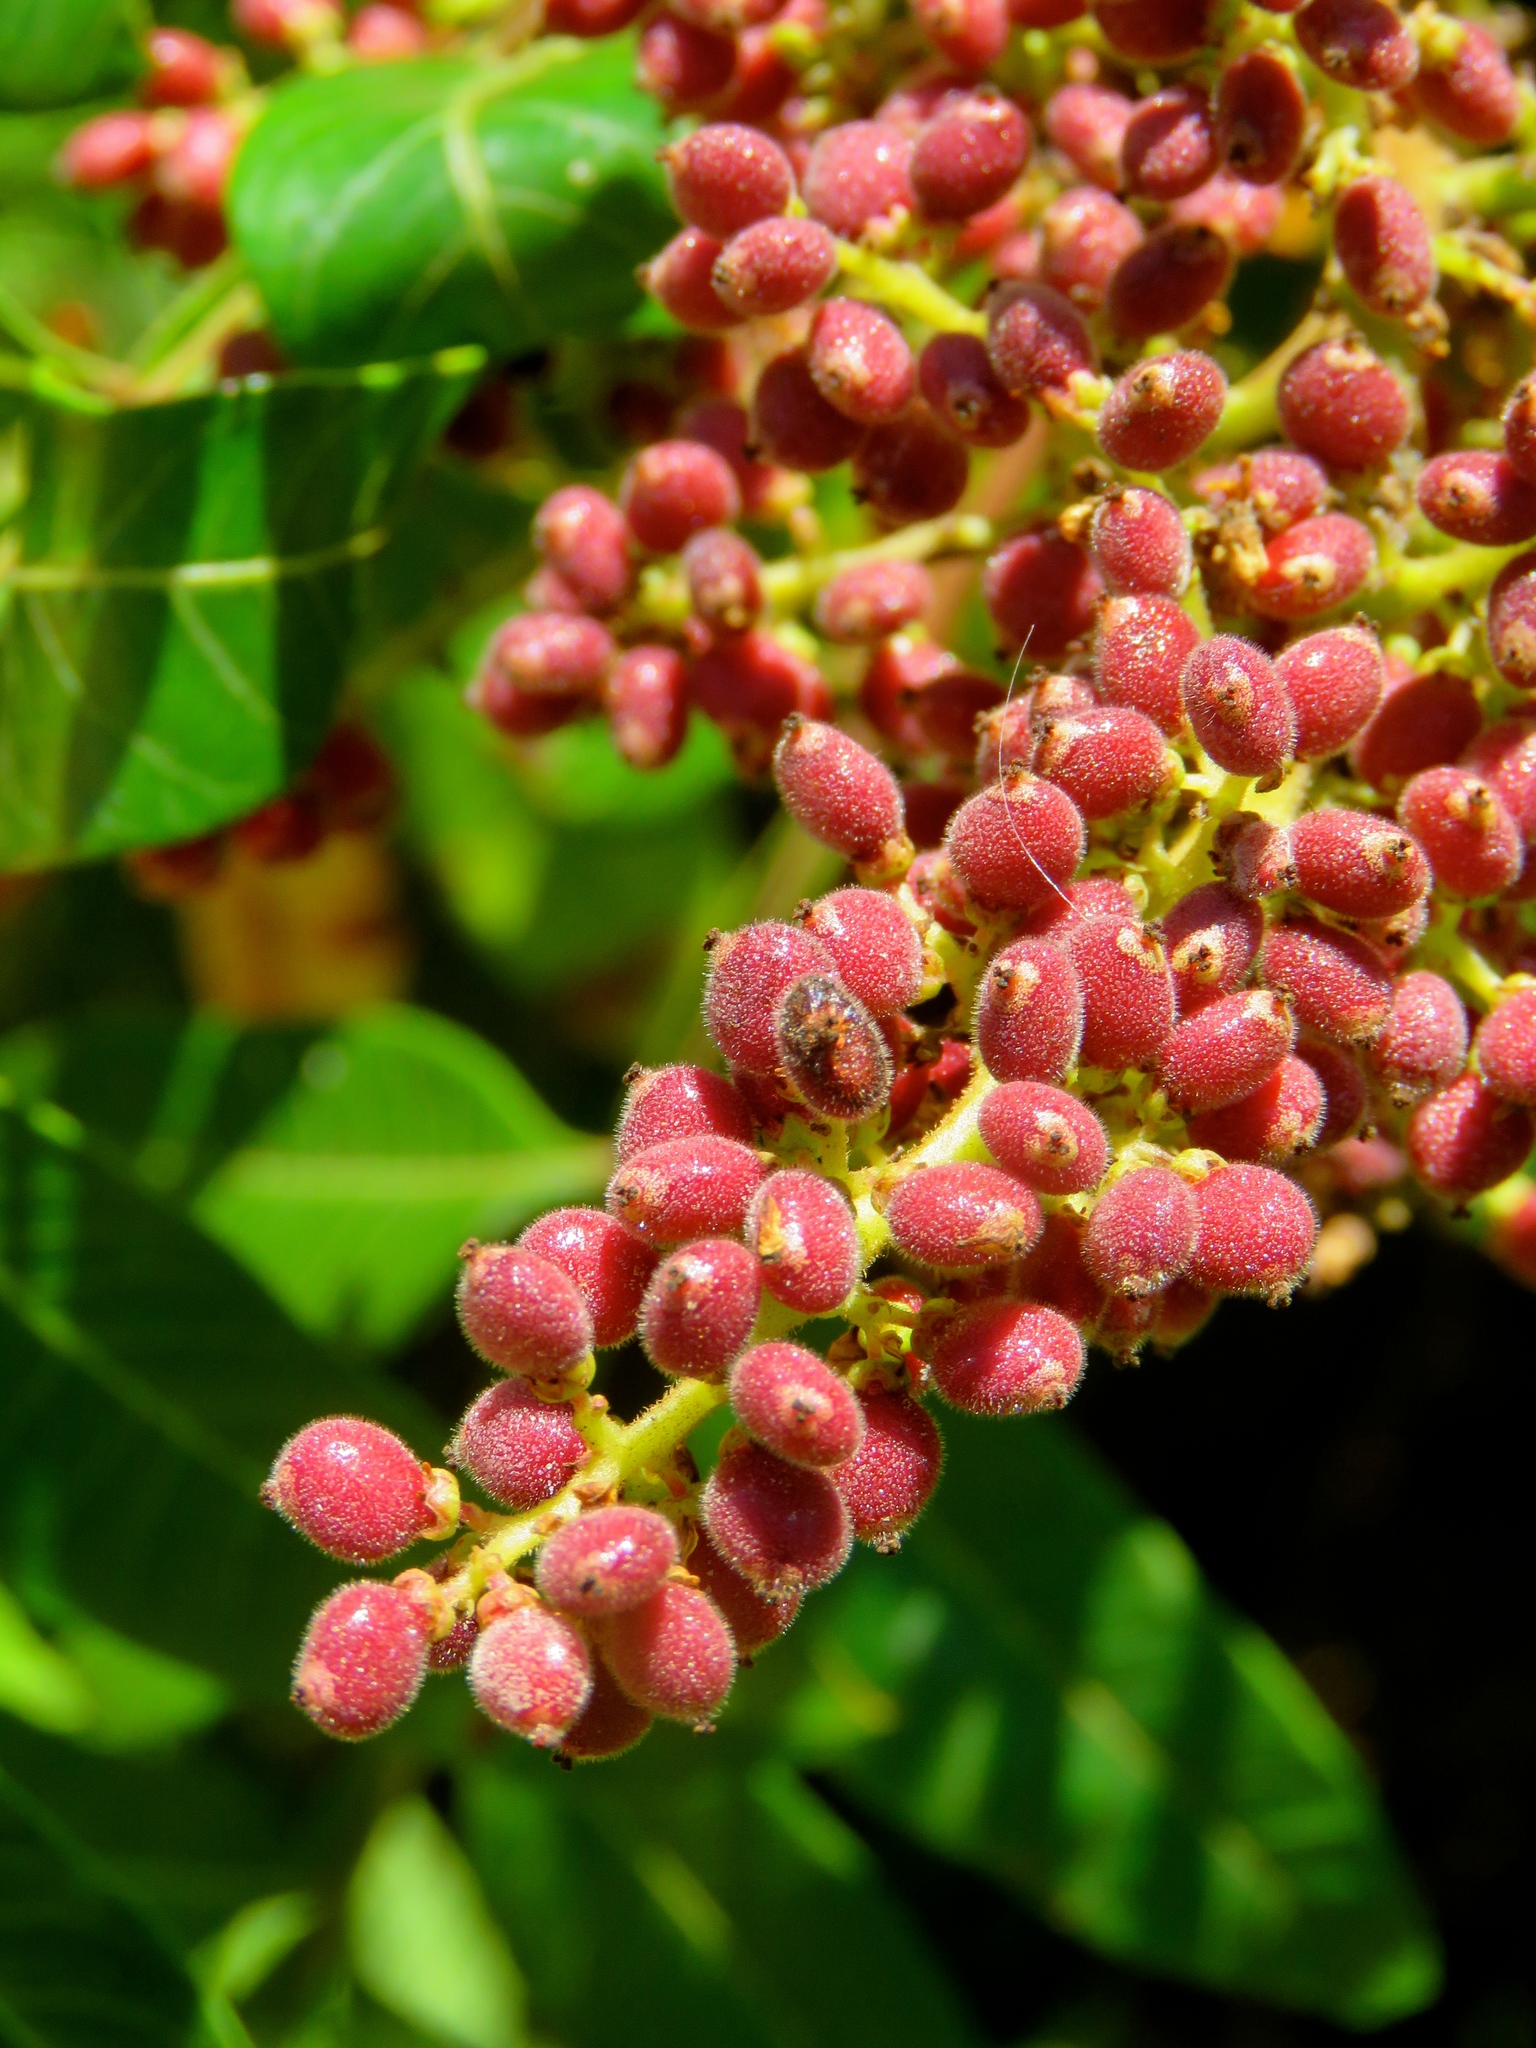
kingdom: Plantae
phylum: Tracheophyta
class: Magnoliopsida
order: Sapindales
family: Anacardiaceae
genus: Rhus
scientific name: Rhus copallina
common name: Shining sumac
